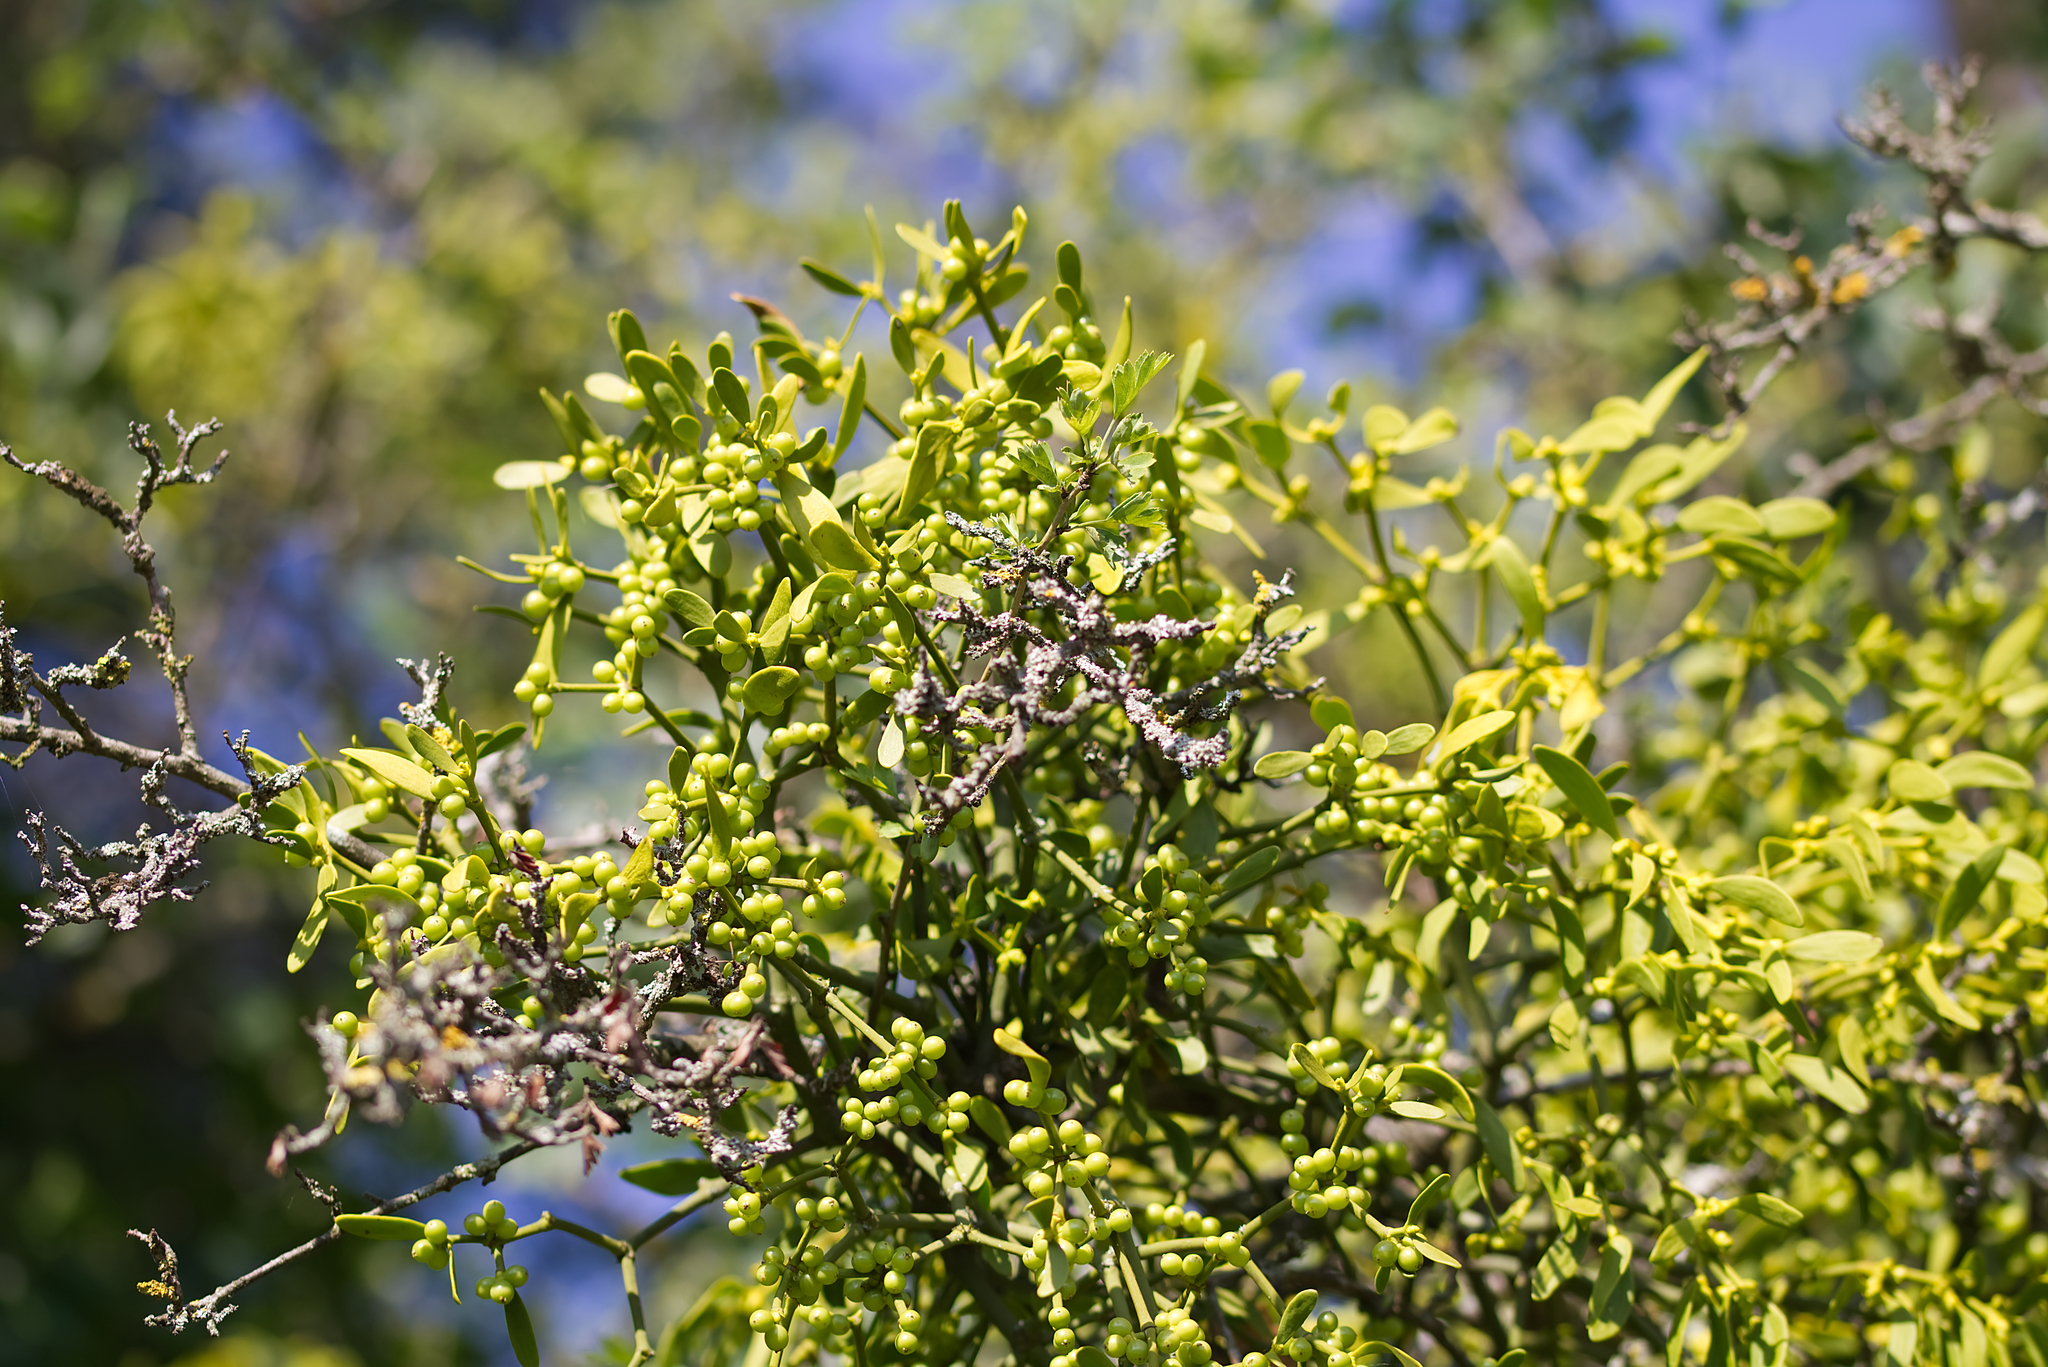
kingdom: Plantae
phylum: Tracheophyta
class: Magnoliopsida
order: Santalales
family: Viscaceae
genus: Viscum
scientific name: Viscum album
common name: Mistletoe
